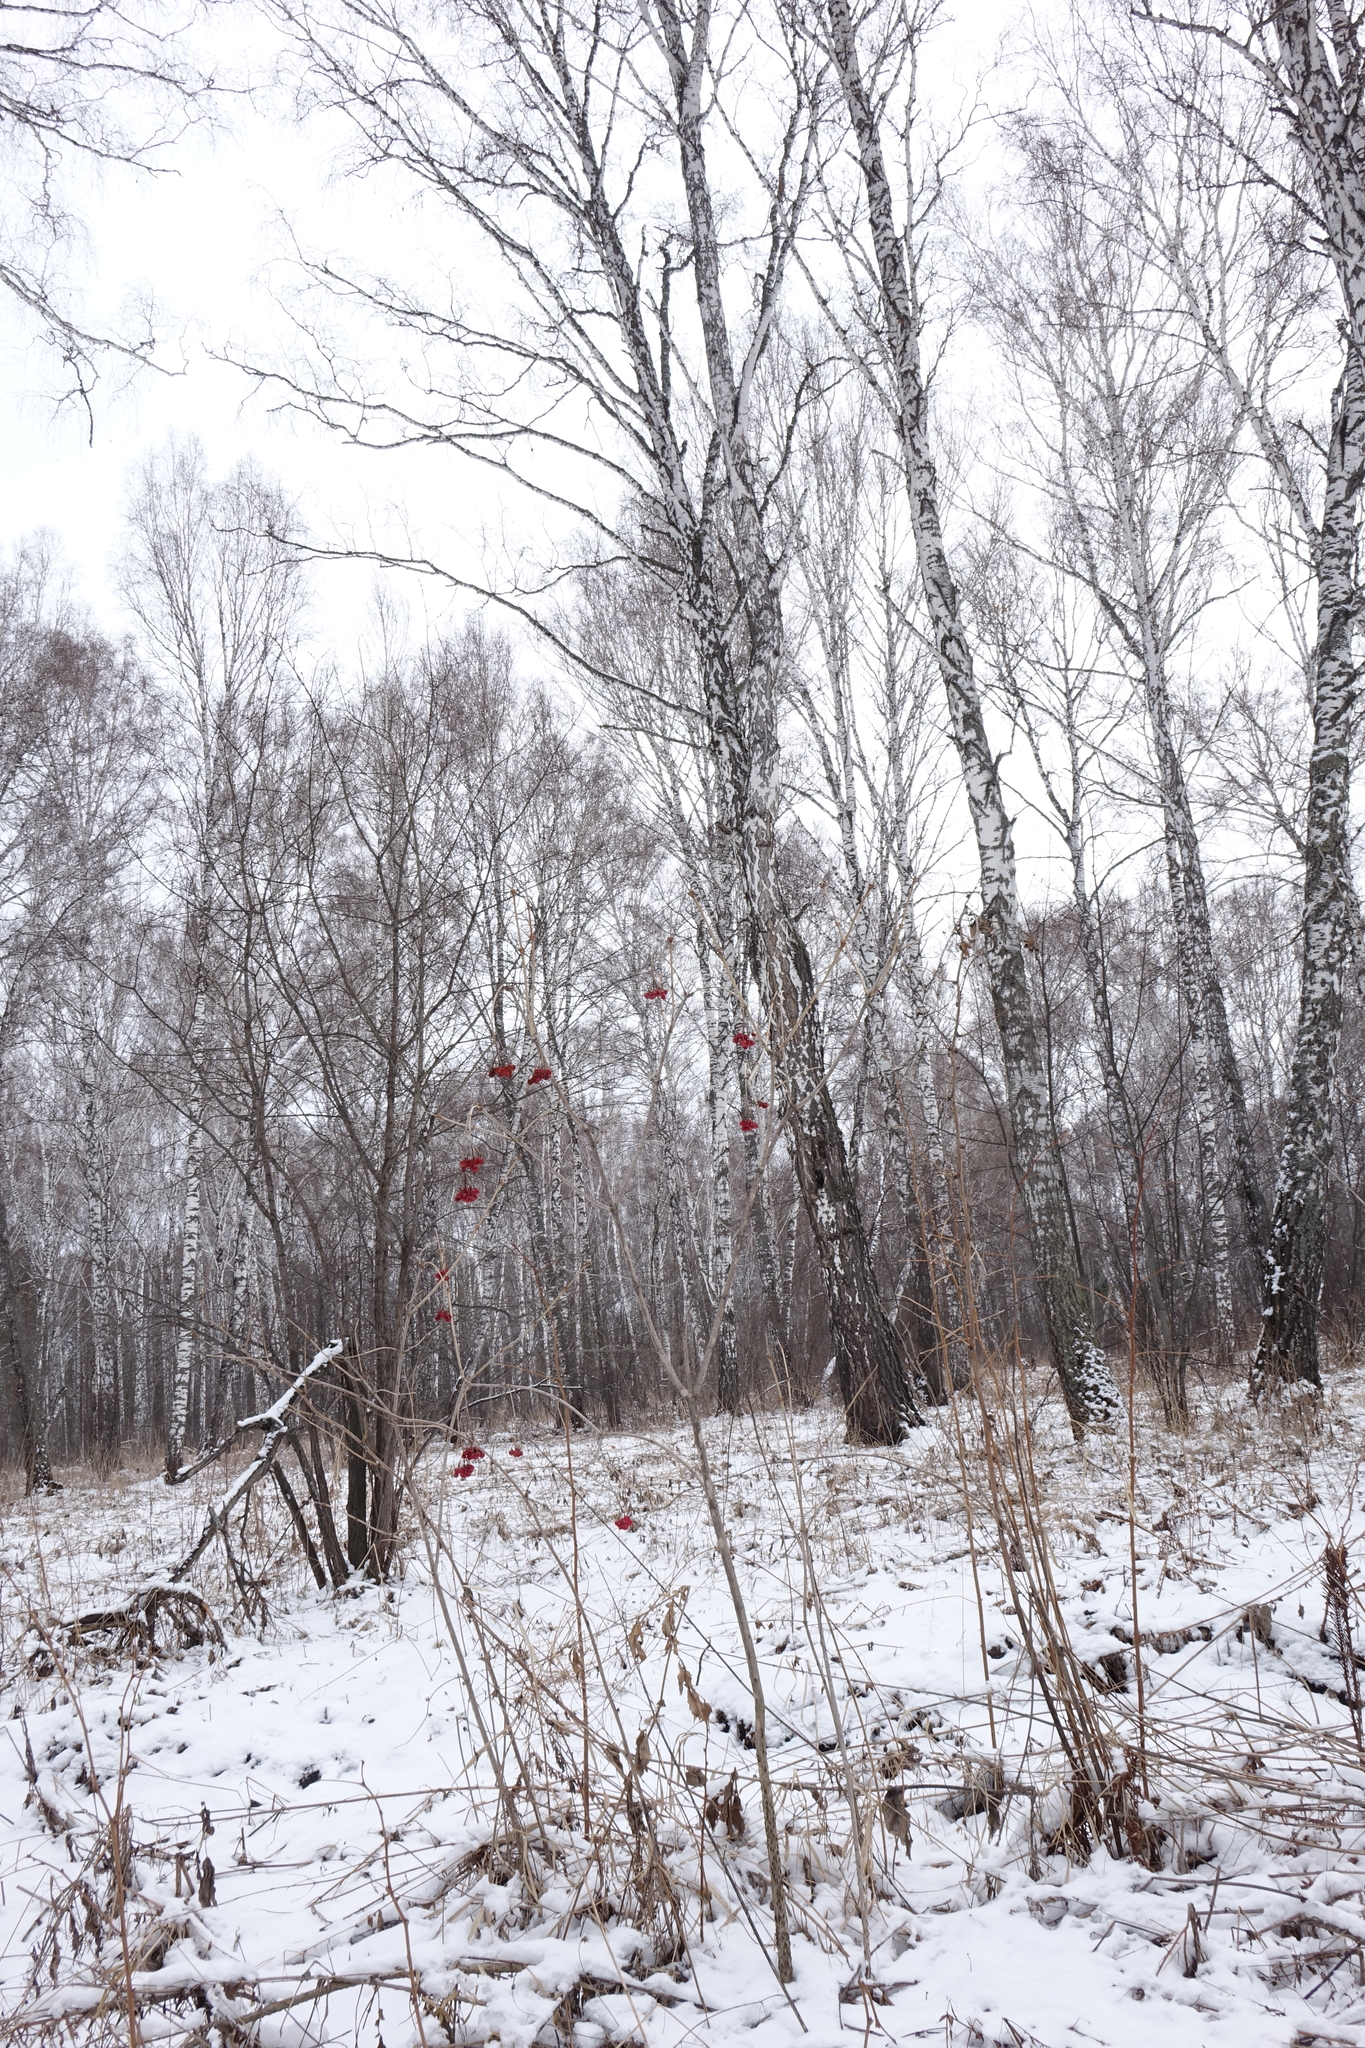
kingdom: Plantae
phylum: Tracheophyta
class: Magnoliopsida
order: Dipsacales
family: Viburnaceae
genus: Viburnum
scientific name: Viburnum opulus
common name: Guelder-rose
